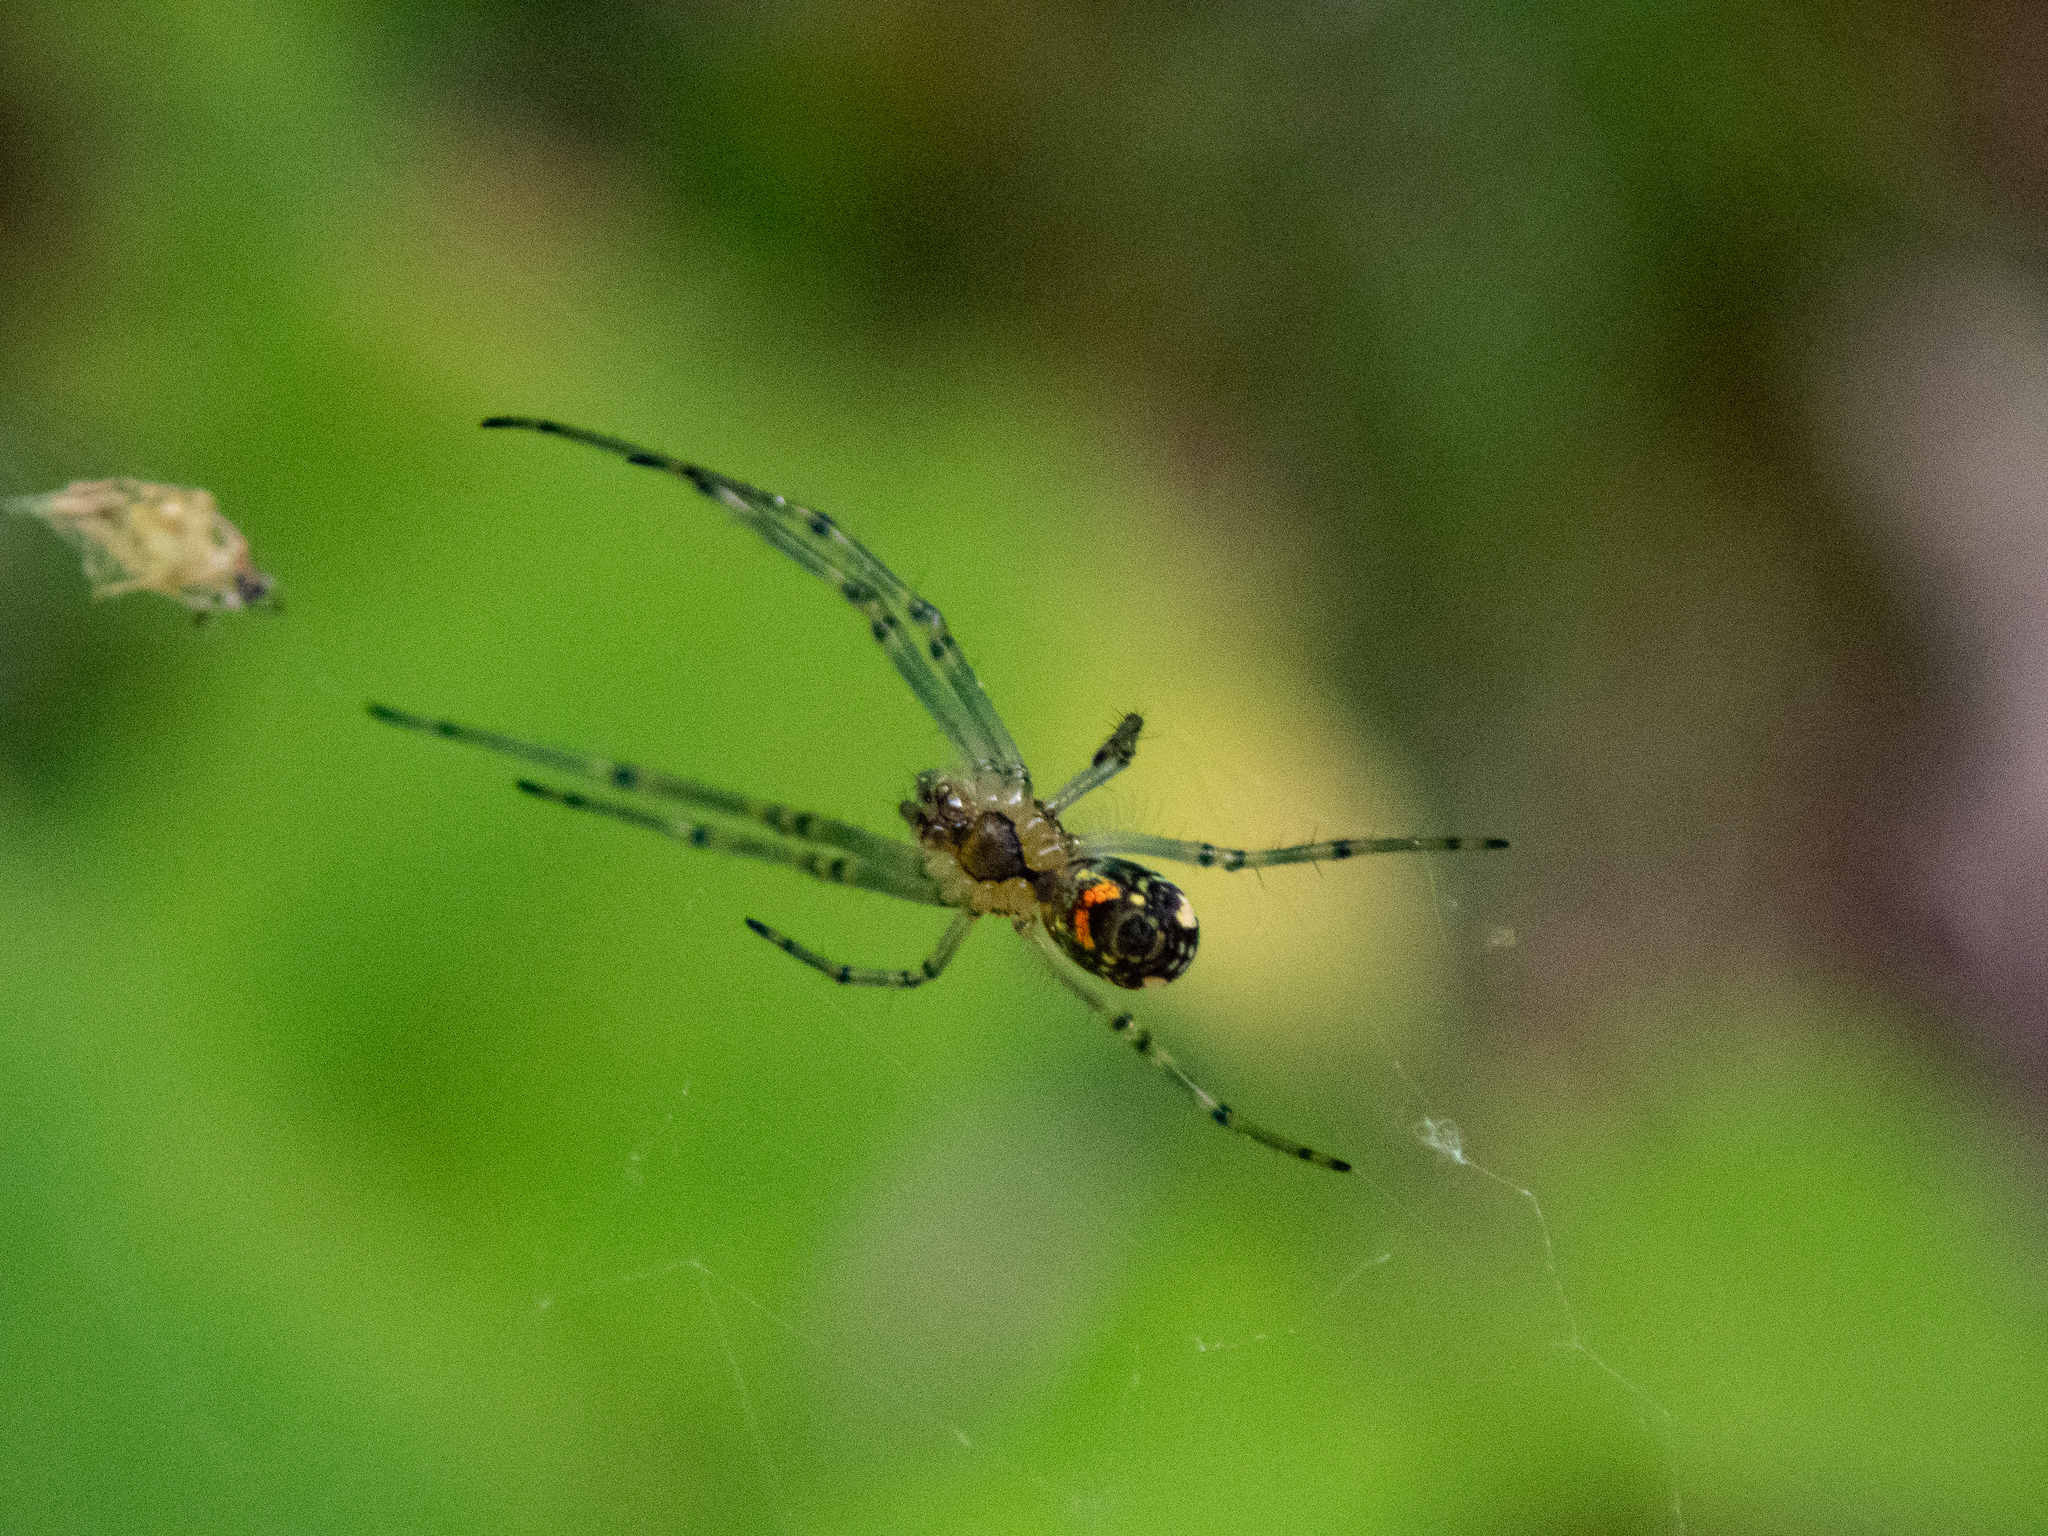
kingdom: Animalia
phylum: Arthropoda
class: Arachnida
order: Araneae
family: Tetragnathidae
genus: Leucauge
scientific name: Leucauge venusta
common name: Longjawed orb weavers
